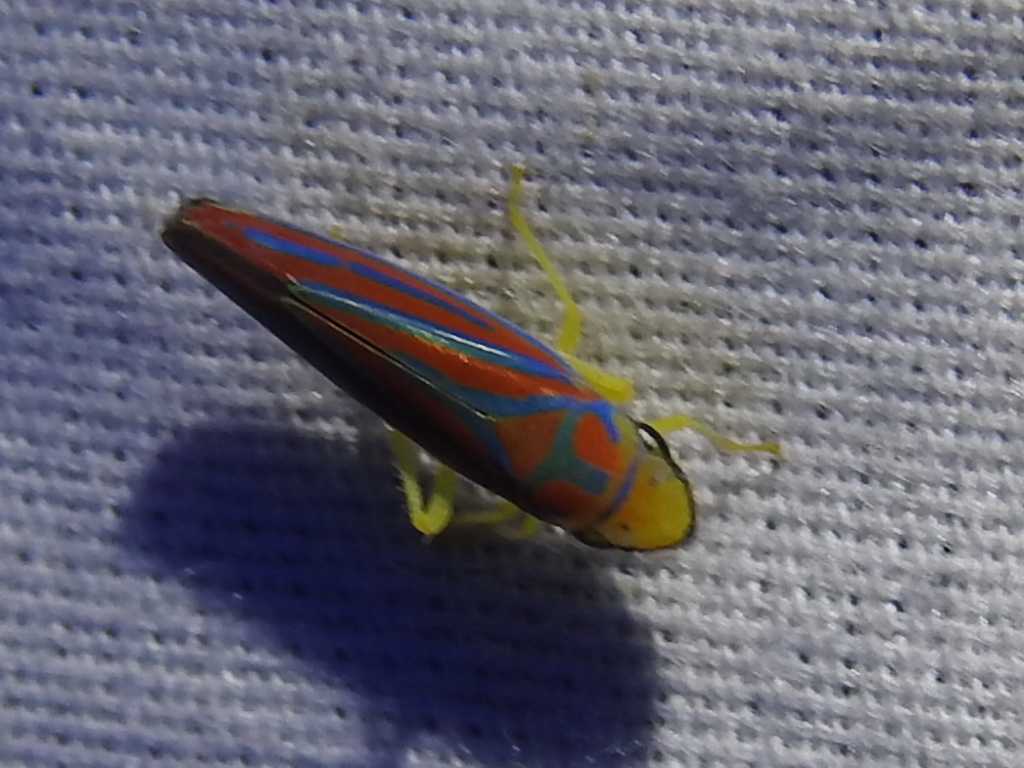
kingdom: Animalia
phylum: Arthropoda
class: Insecta
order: Hemiptera
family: Cicadellidae
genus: Graphocephala
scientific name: Graphocephala coccinea
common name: Candy-striped leafhopper
